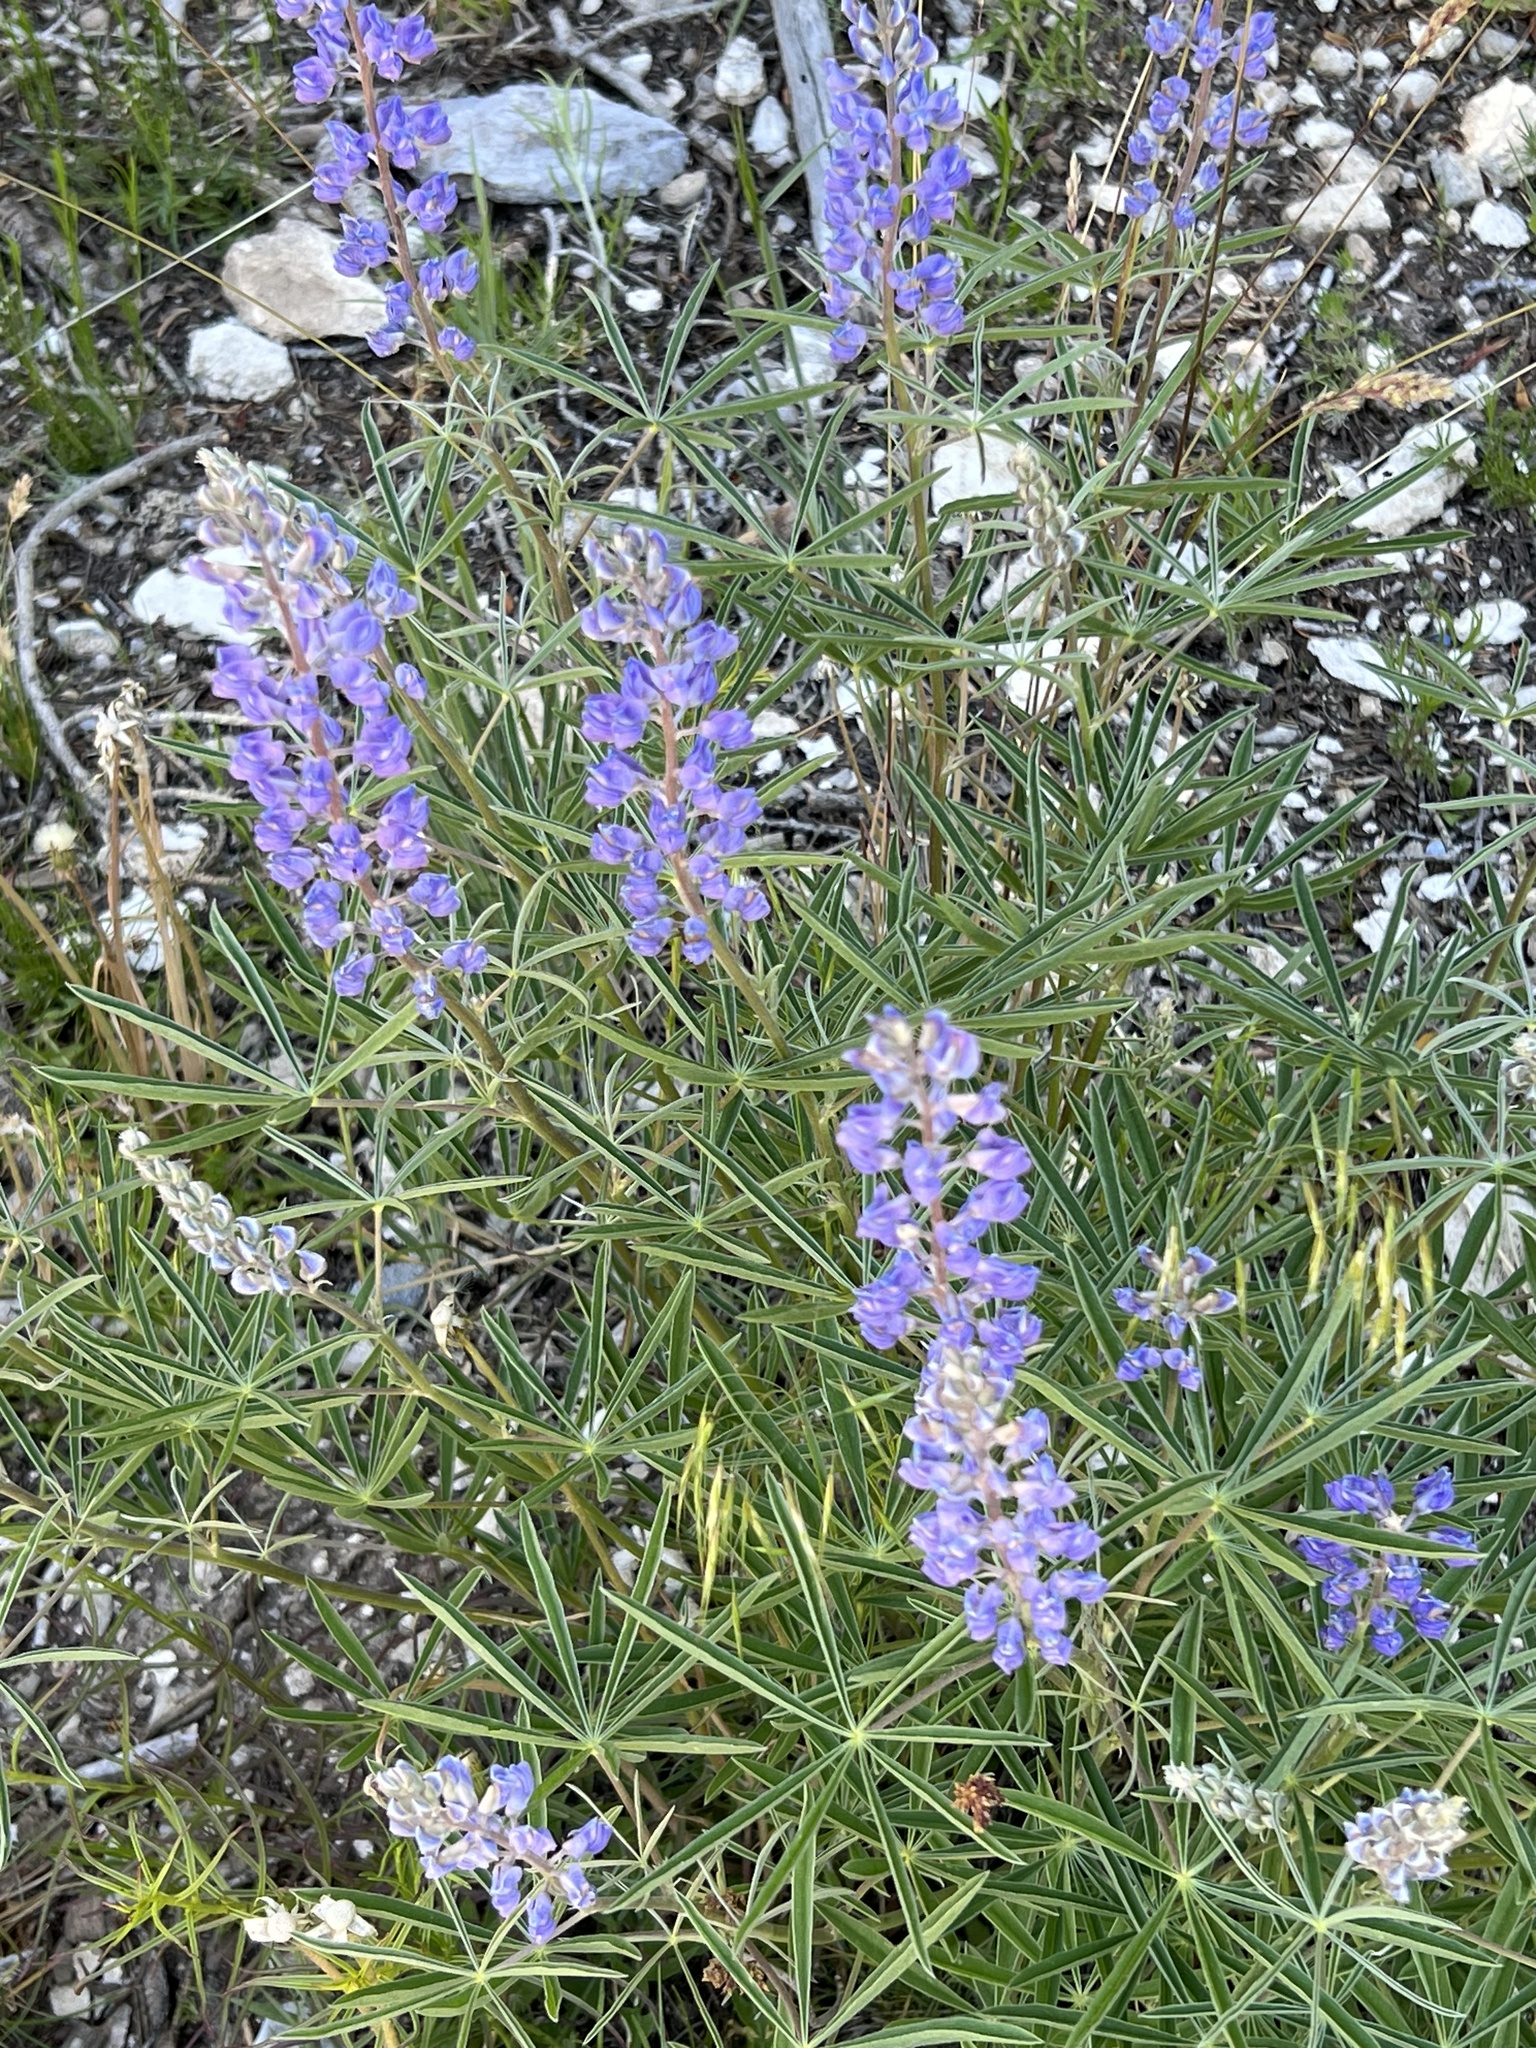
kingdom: Plantae
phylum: Tracheophyta
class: Magnoliopsida
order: Fabales
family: Fabaceae
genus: Lupinus
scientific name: Lupinus argenteus
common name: Silvery lupine
